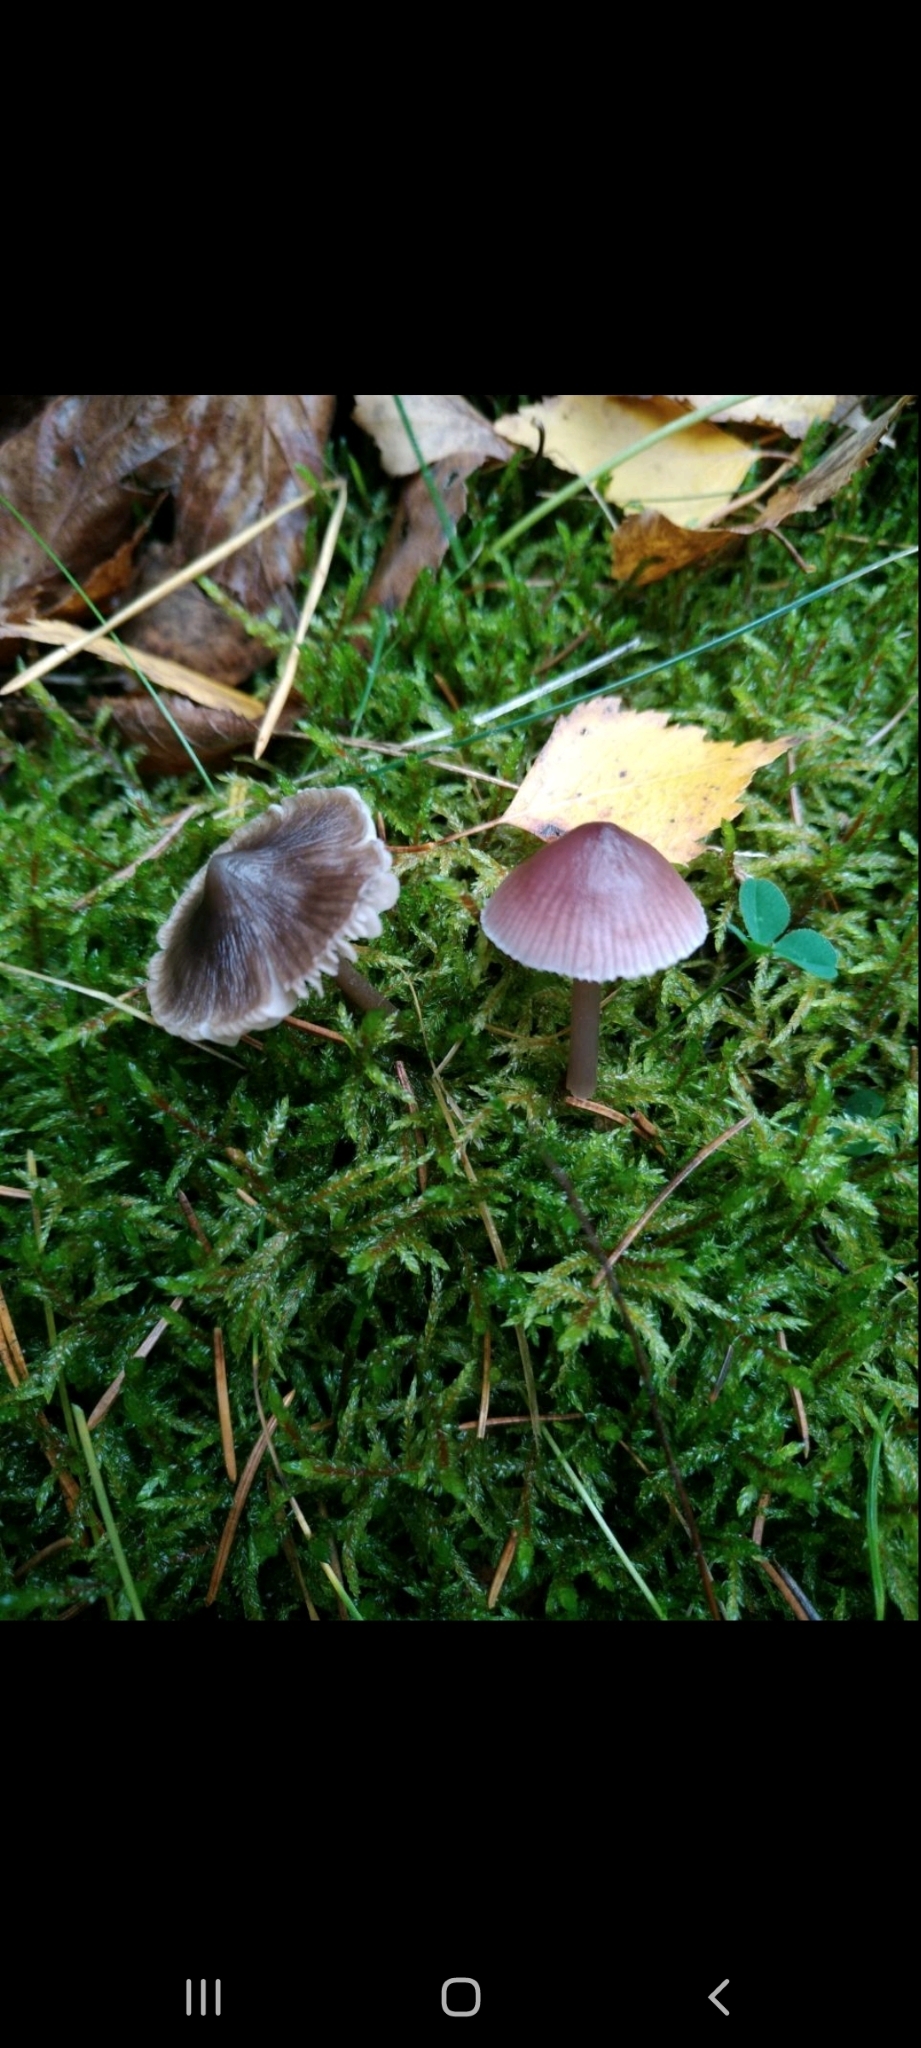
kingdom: Fungi
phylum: Basidiomycota
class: Agaricomycetes
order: Agaricales
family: Mycenaceae
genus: Mycena
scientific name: Mycena pura
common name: Lilac bonnet
